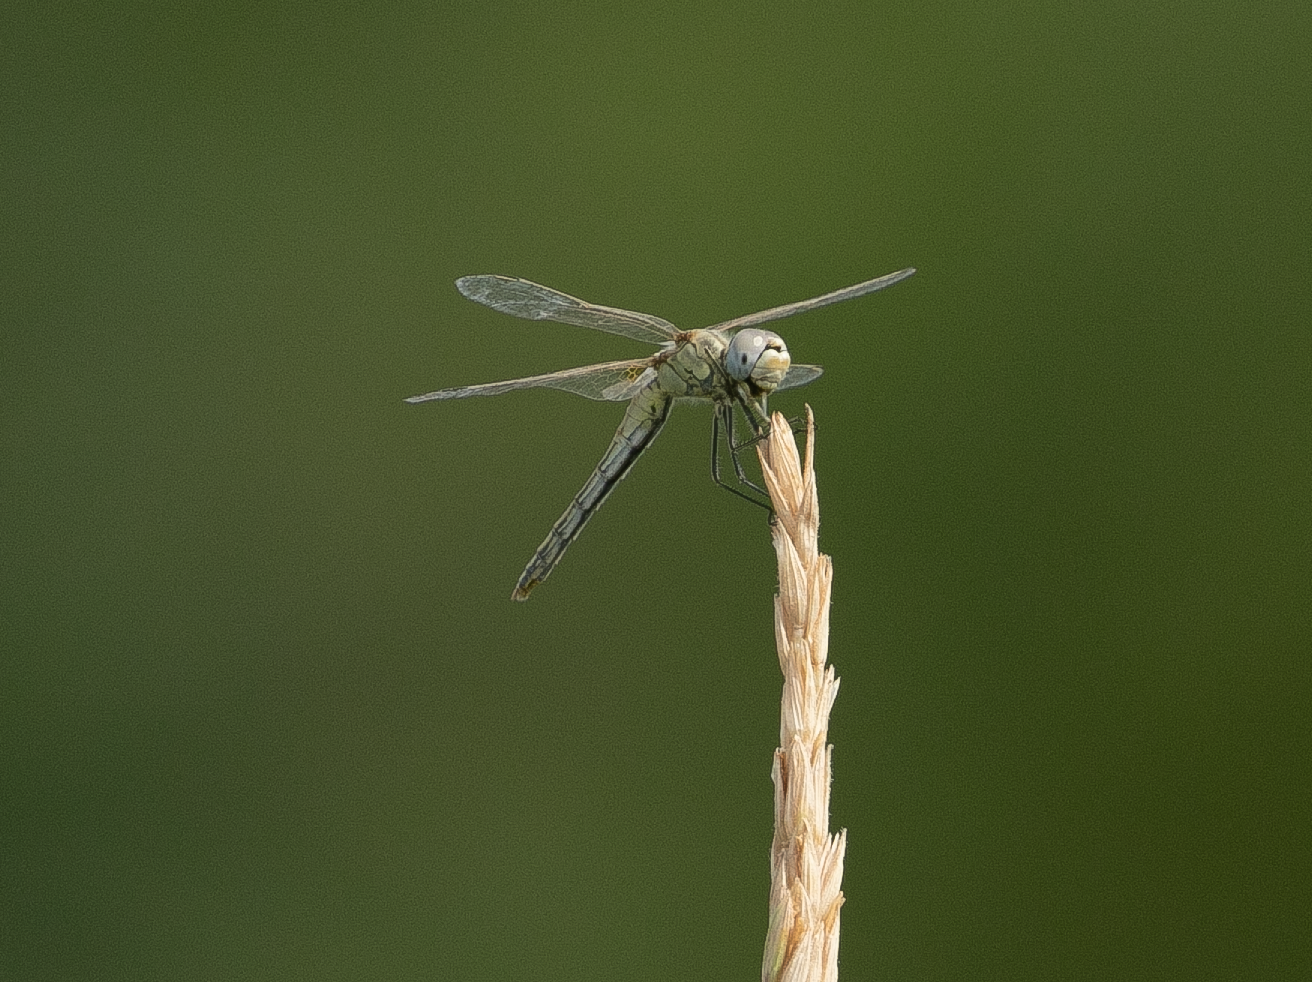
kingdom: Animalia
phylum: Arthropoda
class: Insecta
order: Odonata
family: Libellulidae
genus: Sympetrum
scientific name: Sympetrum fonscolombii
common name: Red-veined darter
